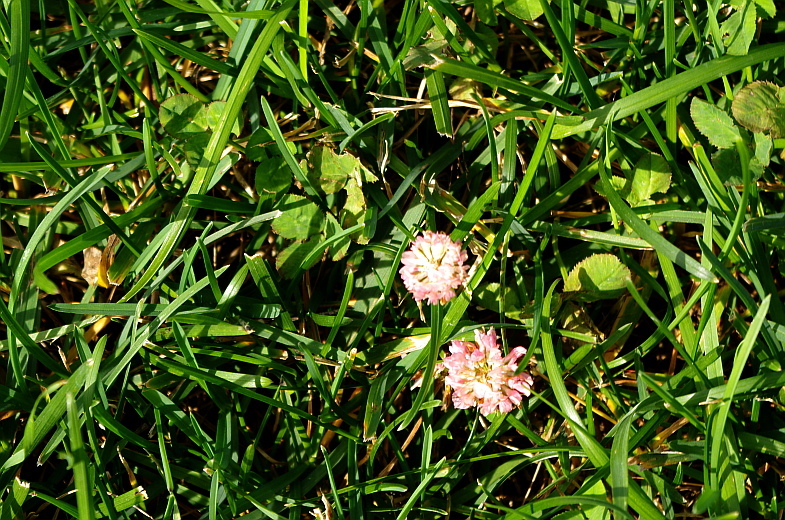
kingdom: Plantae
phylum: Tracheophyta
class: Magnoliopsida
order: Fabales
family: Fabaceae
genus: Trifolium
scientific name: Trifolium hybridum
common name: Alsike clover
